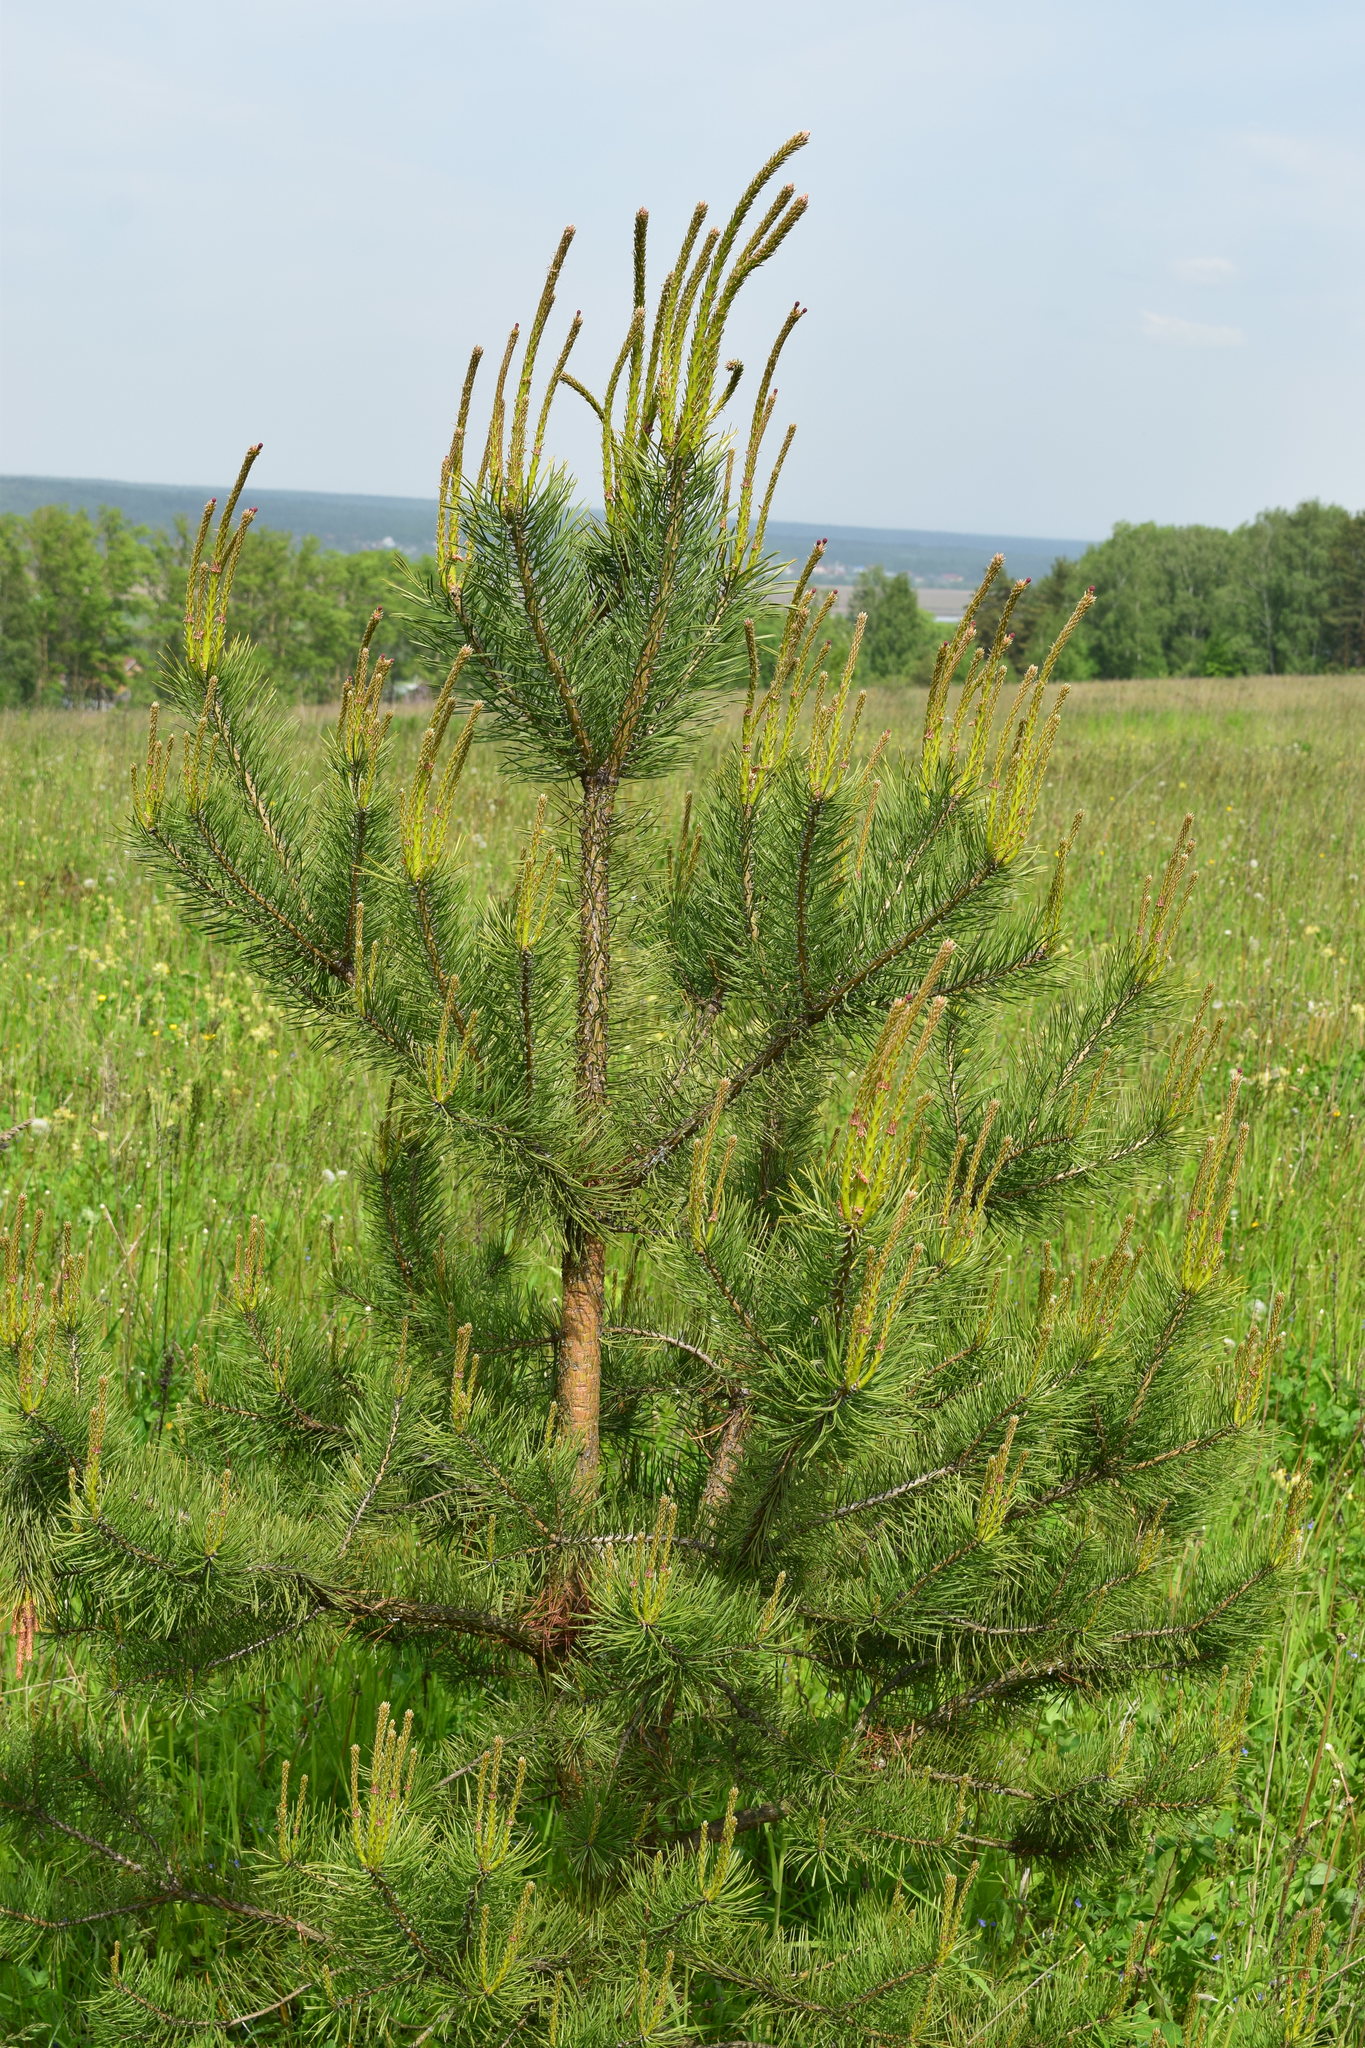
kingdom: Plantae
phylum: Tracheophyta
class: Pinopsida
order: Pinales
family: Pinaceae
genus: Pinus
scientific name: Pinus sylvestris
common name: Scots pine
